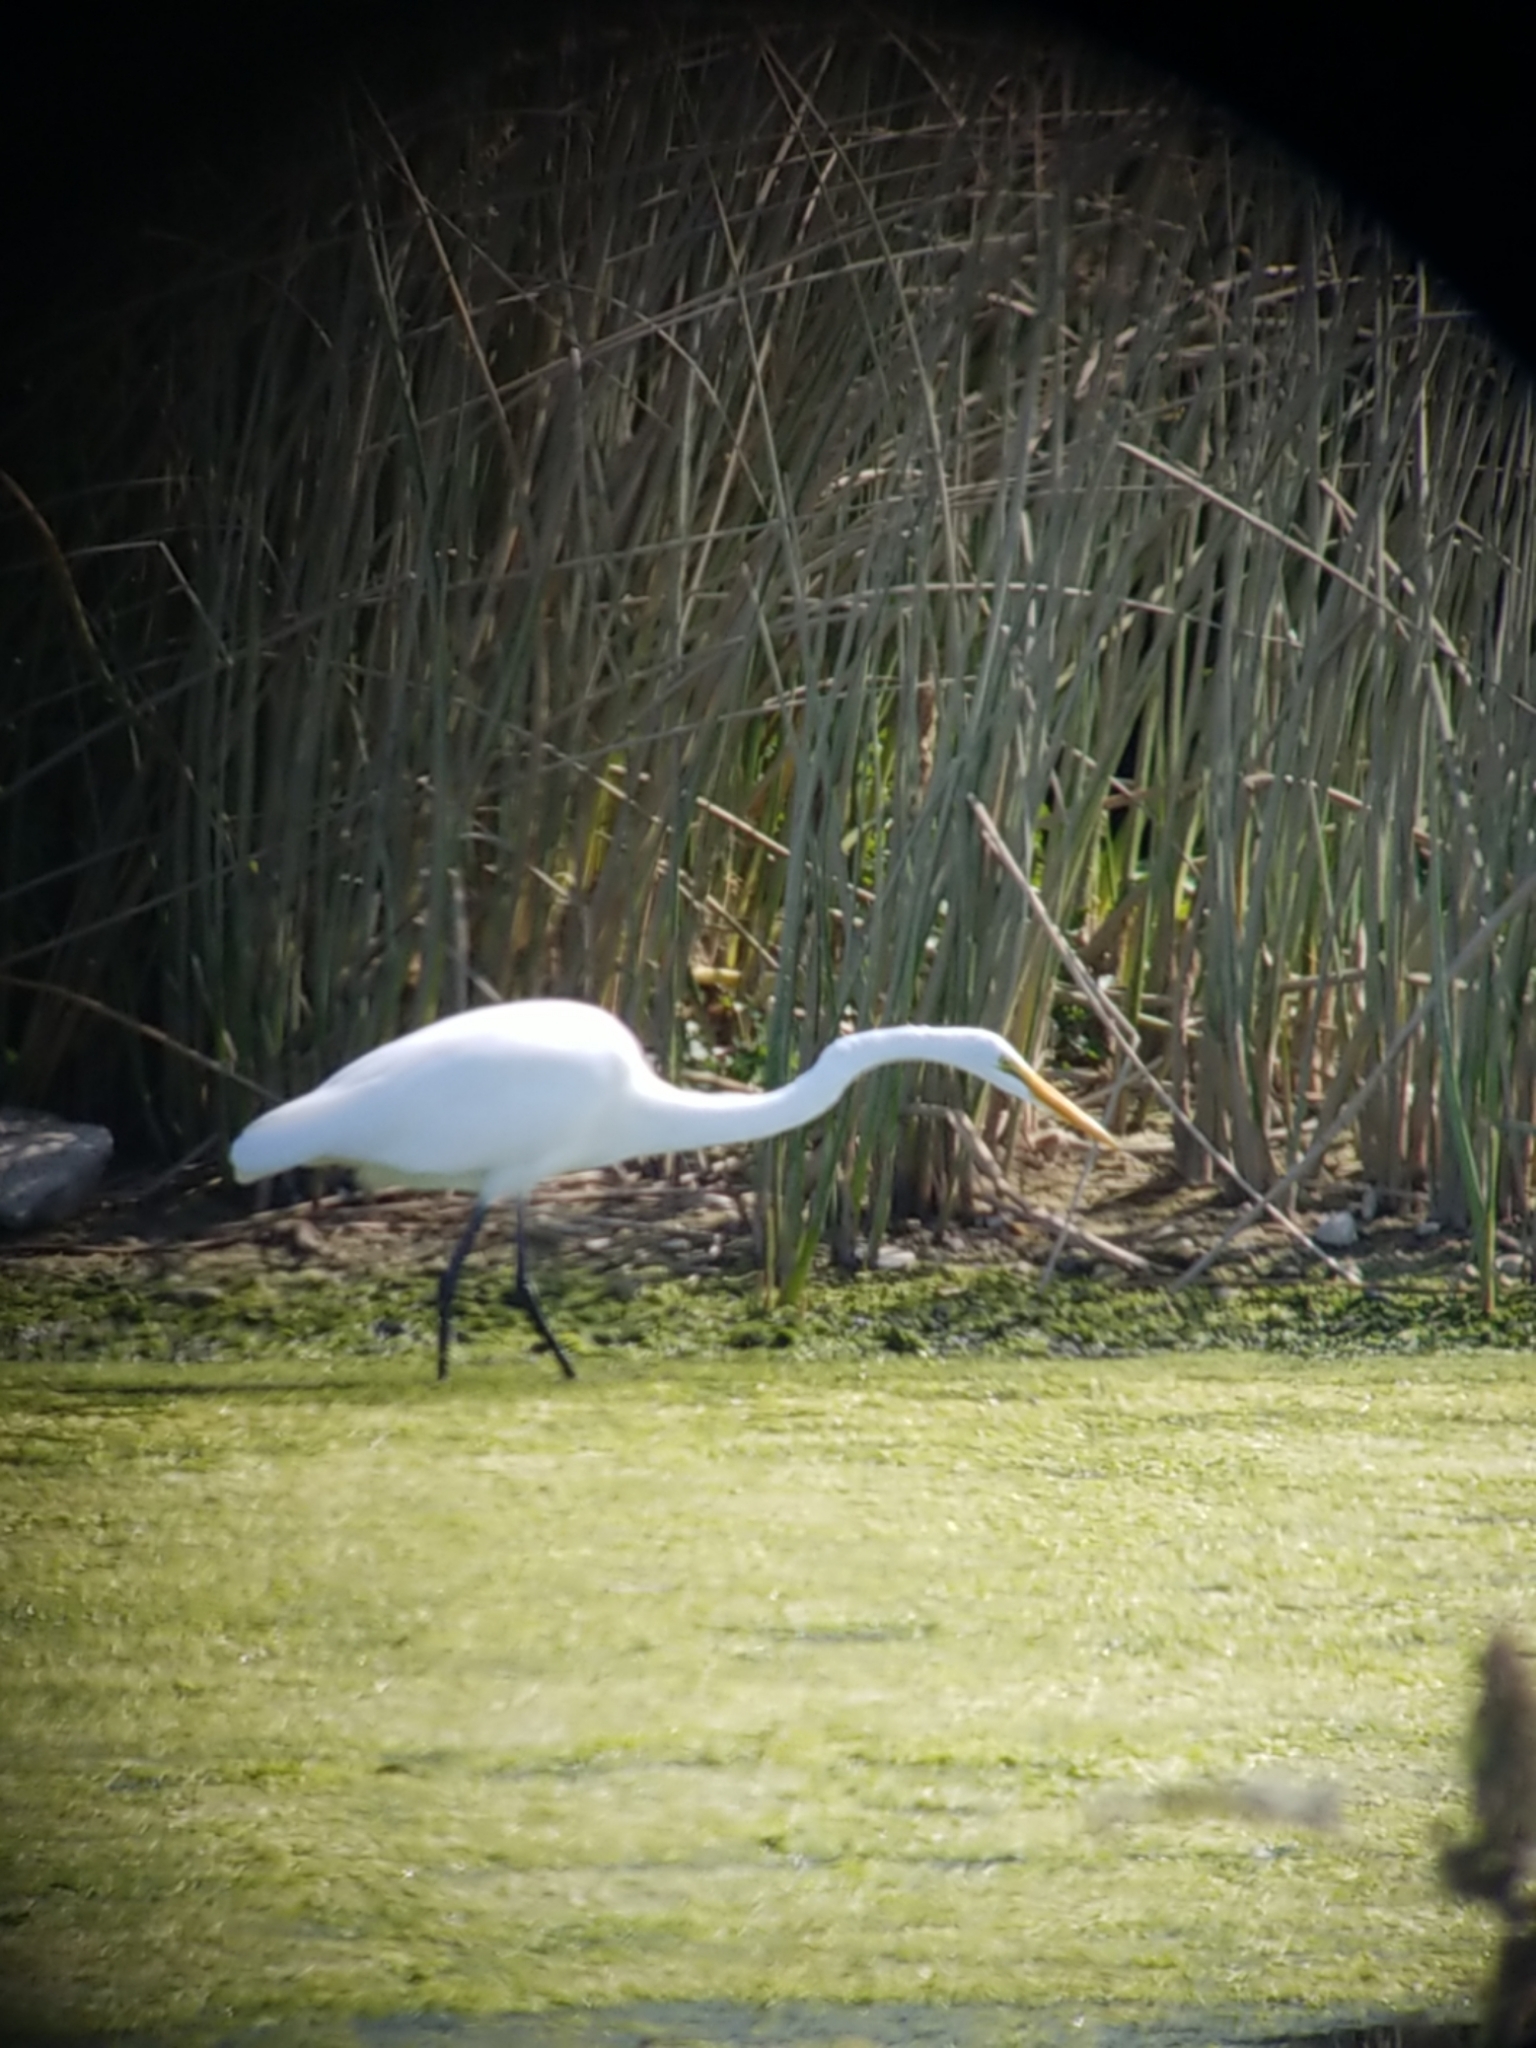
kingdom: Animalia
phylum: Chordata
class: Aves
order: Pelecaniformes
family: Ardeidae
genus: Ardea
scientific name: Ardea alba
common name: Great egret
